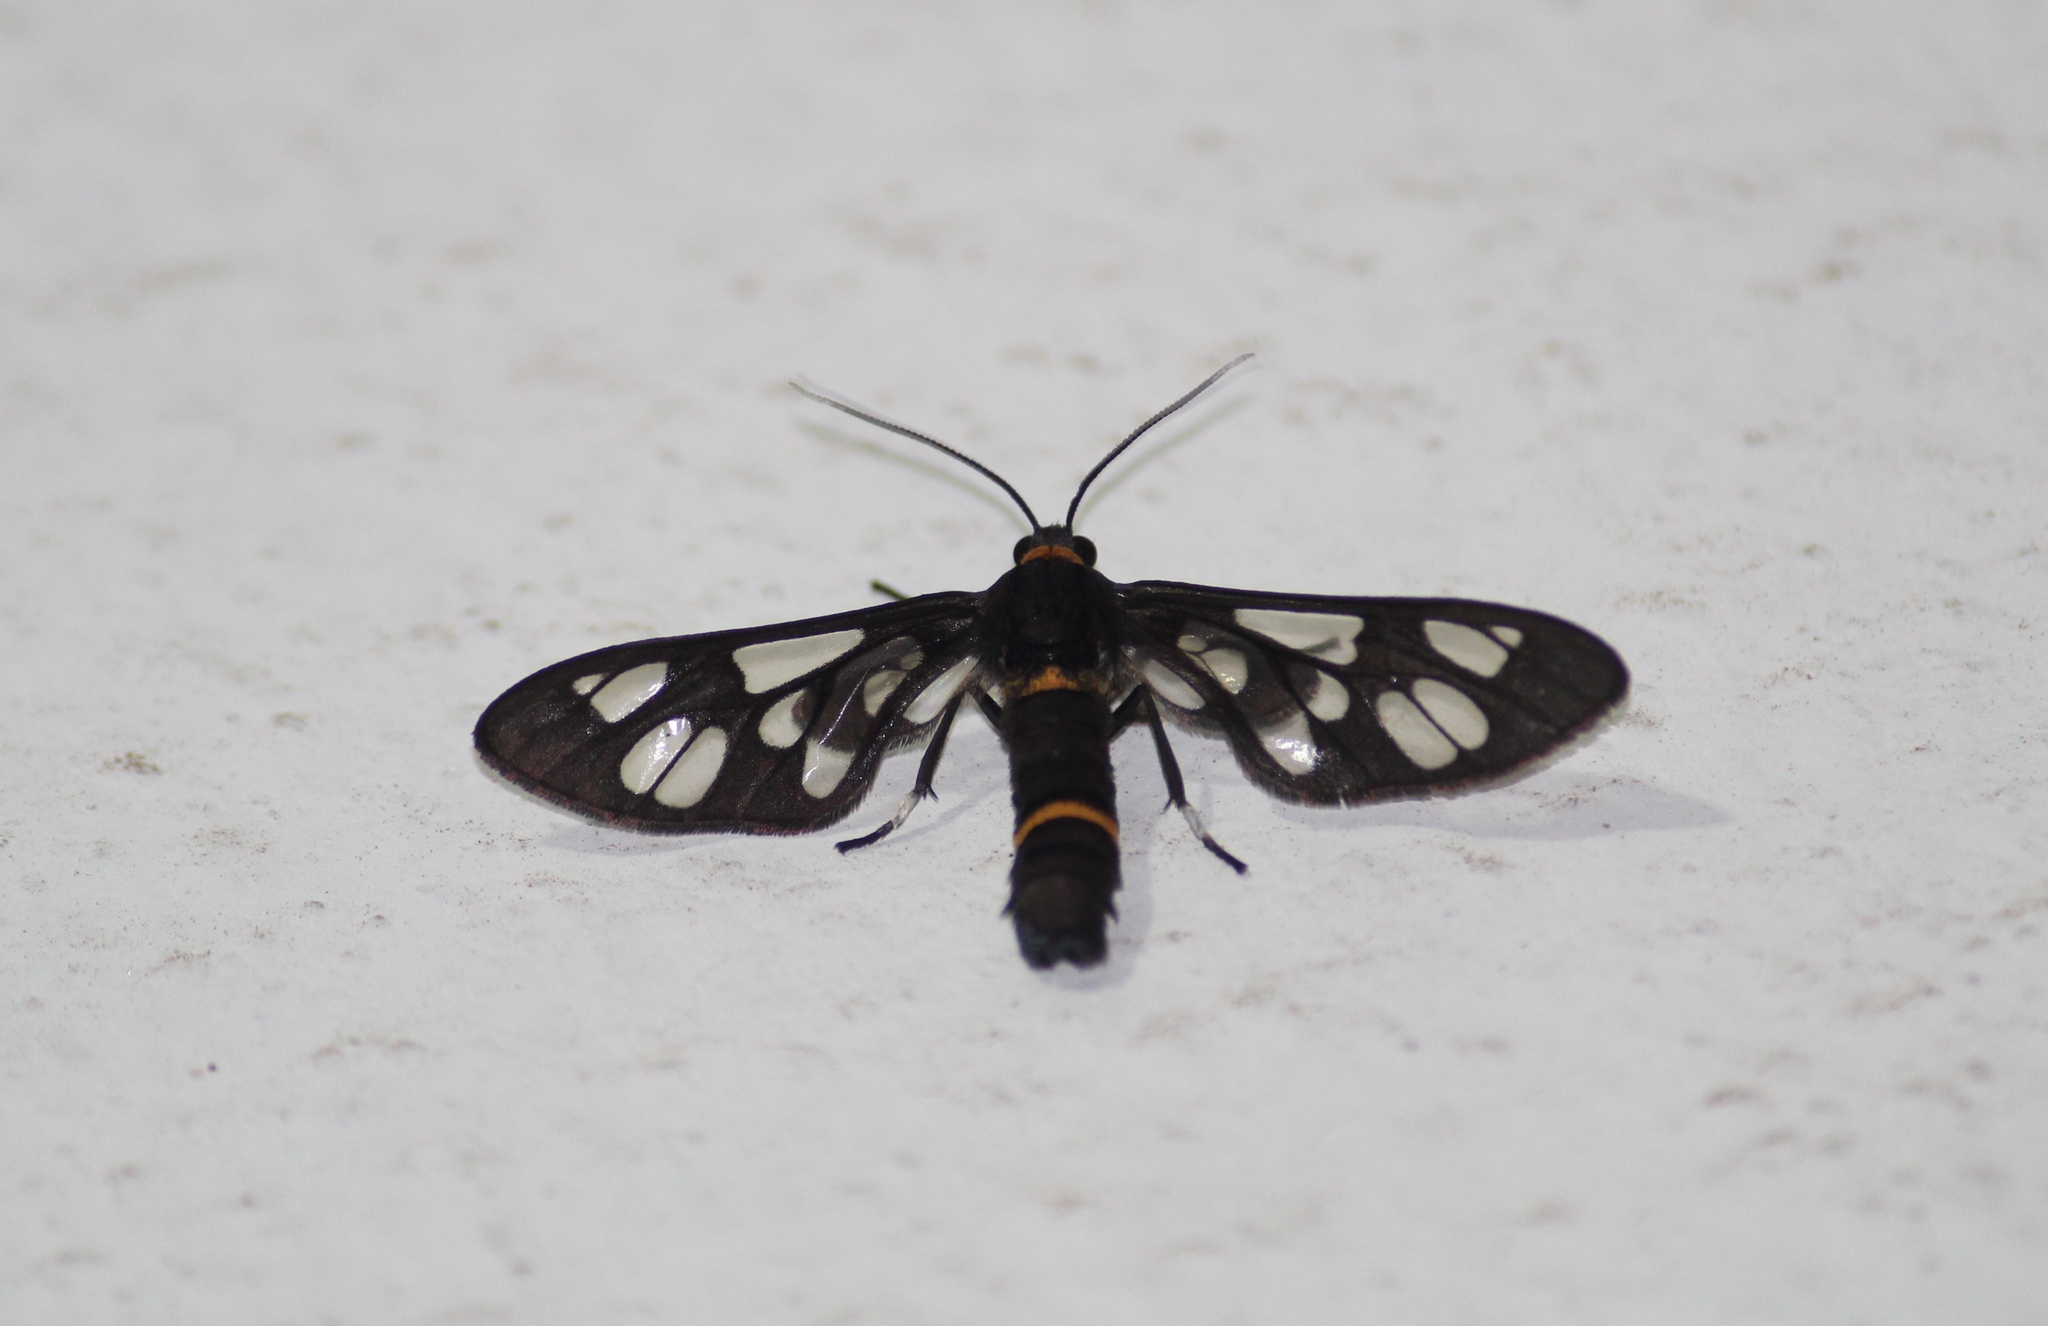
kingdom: Animalia
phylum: Arthropoda
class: Insecta
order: Lepidoptera
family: Erebidae
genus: Syntomoides
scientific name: Syntomoides imaon
